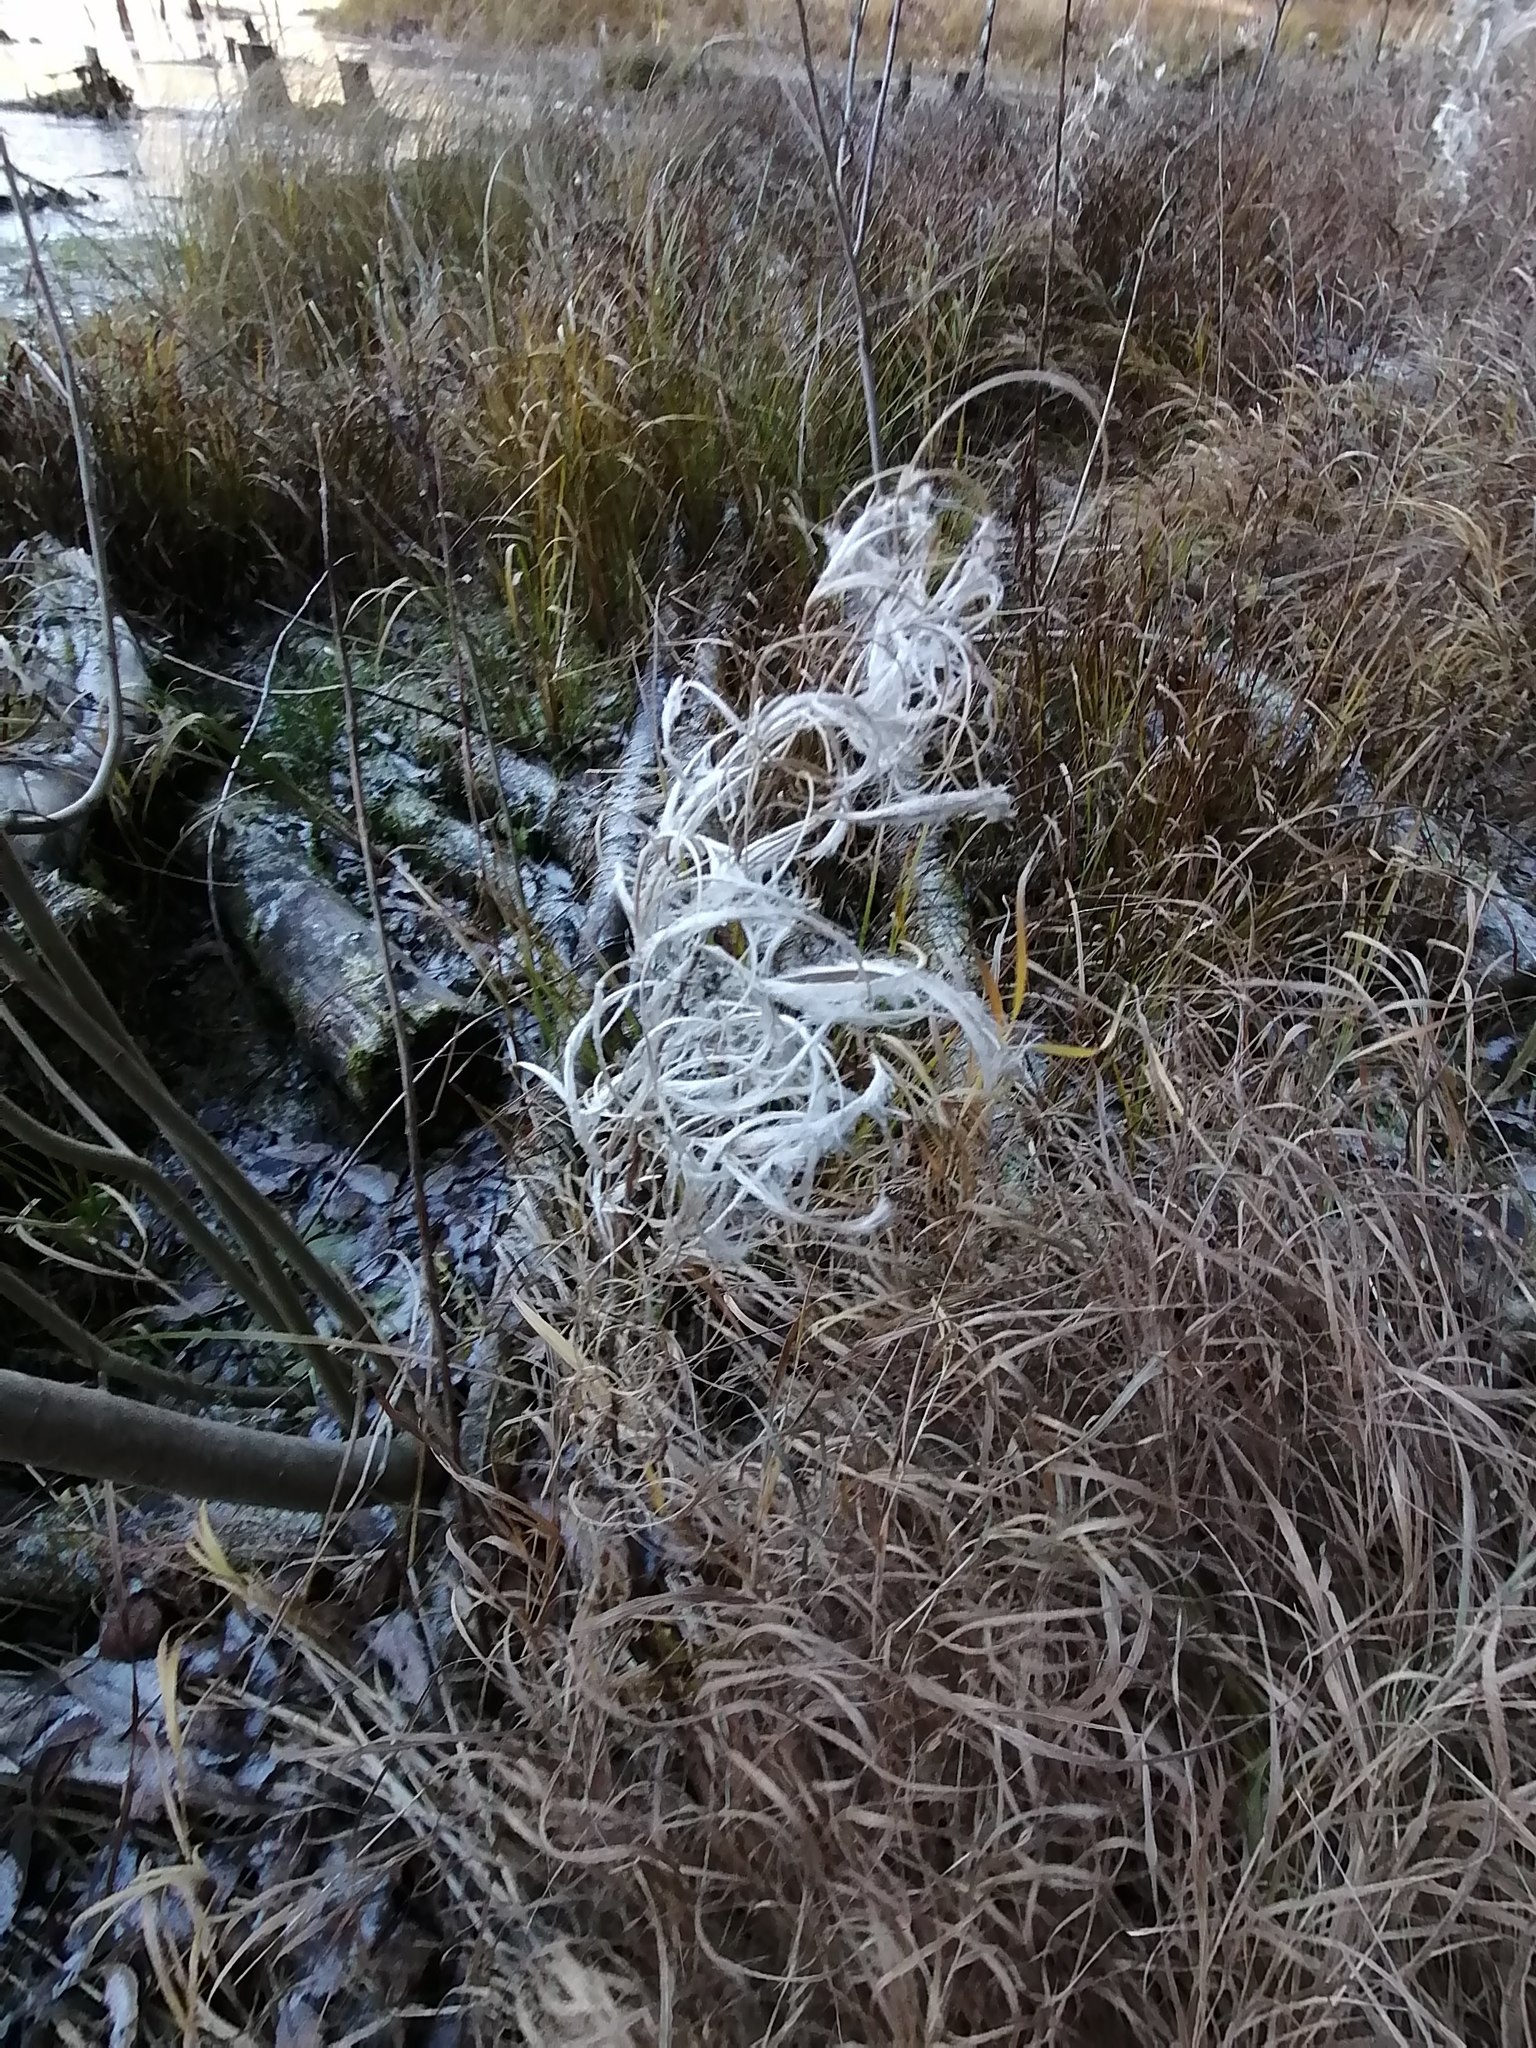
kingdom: Plantae
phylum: Tracheophyta
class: Magnoliopsida
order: Myrtales
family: Onagraceae
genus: Chamaenerion
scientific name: Chamaenerion angustifolium
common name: Fireweed
